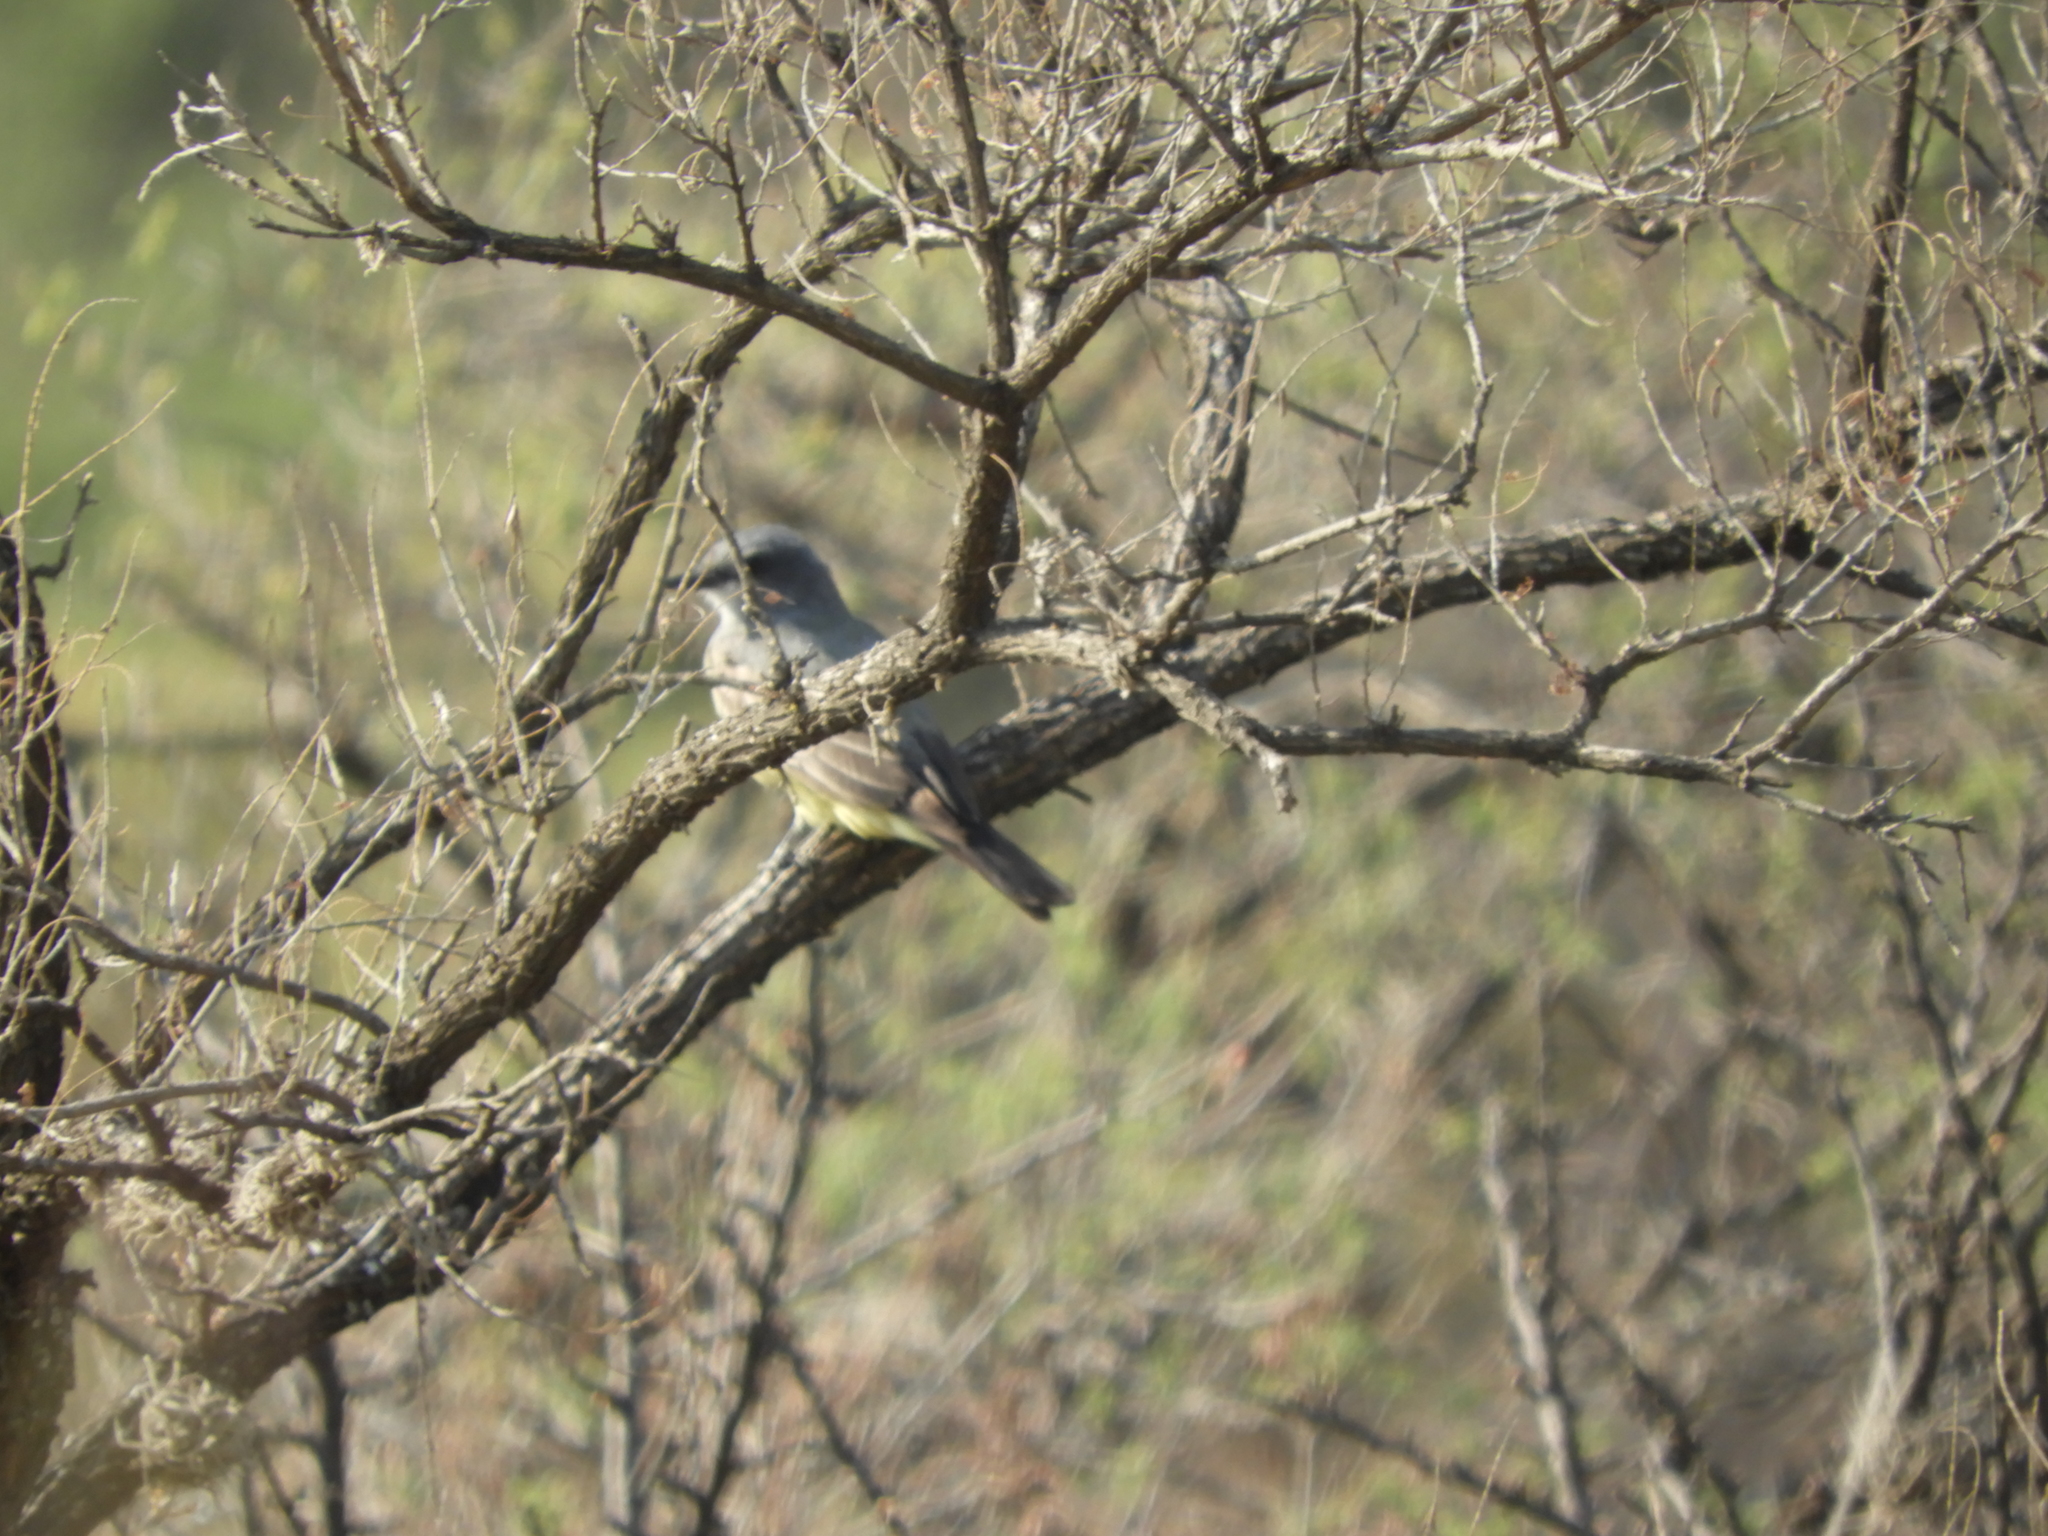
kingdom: Animalia
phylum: Chordata
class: Aves
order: Passeriformes
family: Tyrannidae
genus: Tyrannus
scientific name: Tyrannus vociferans
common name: Cassin's kingbird
